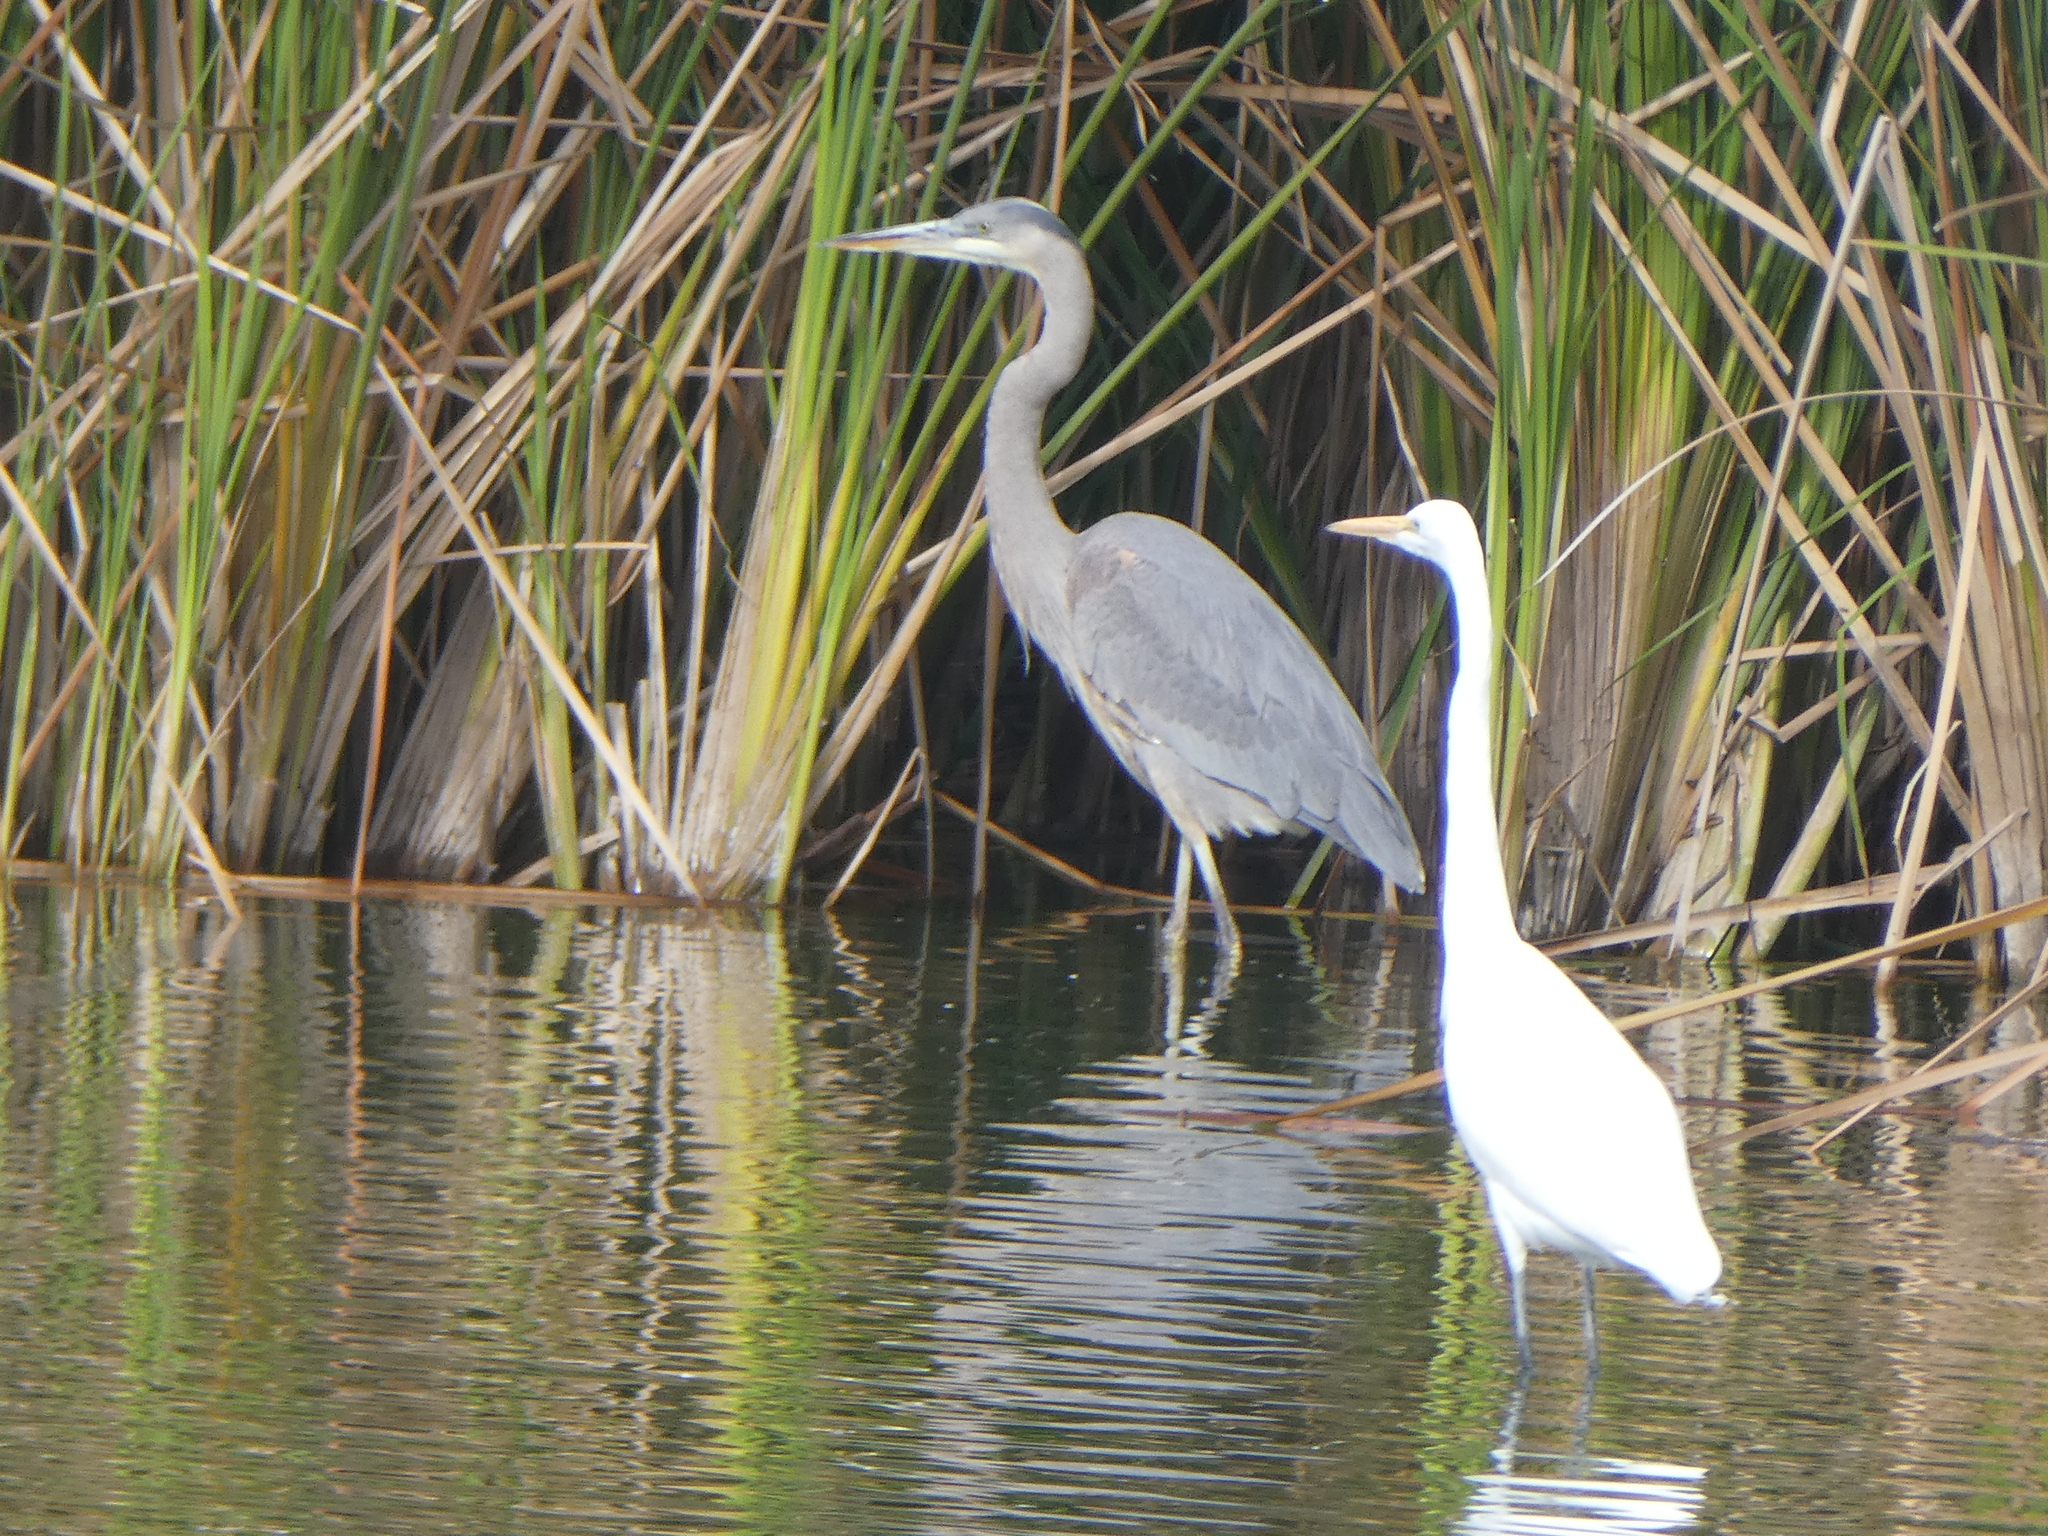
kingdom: Animalia
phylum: Chordata
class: Aves
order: Pelecaniformes
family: Ardeidae
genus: Ardea
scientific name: Ardea herodias
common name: Great blue heron
